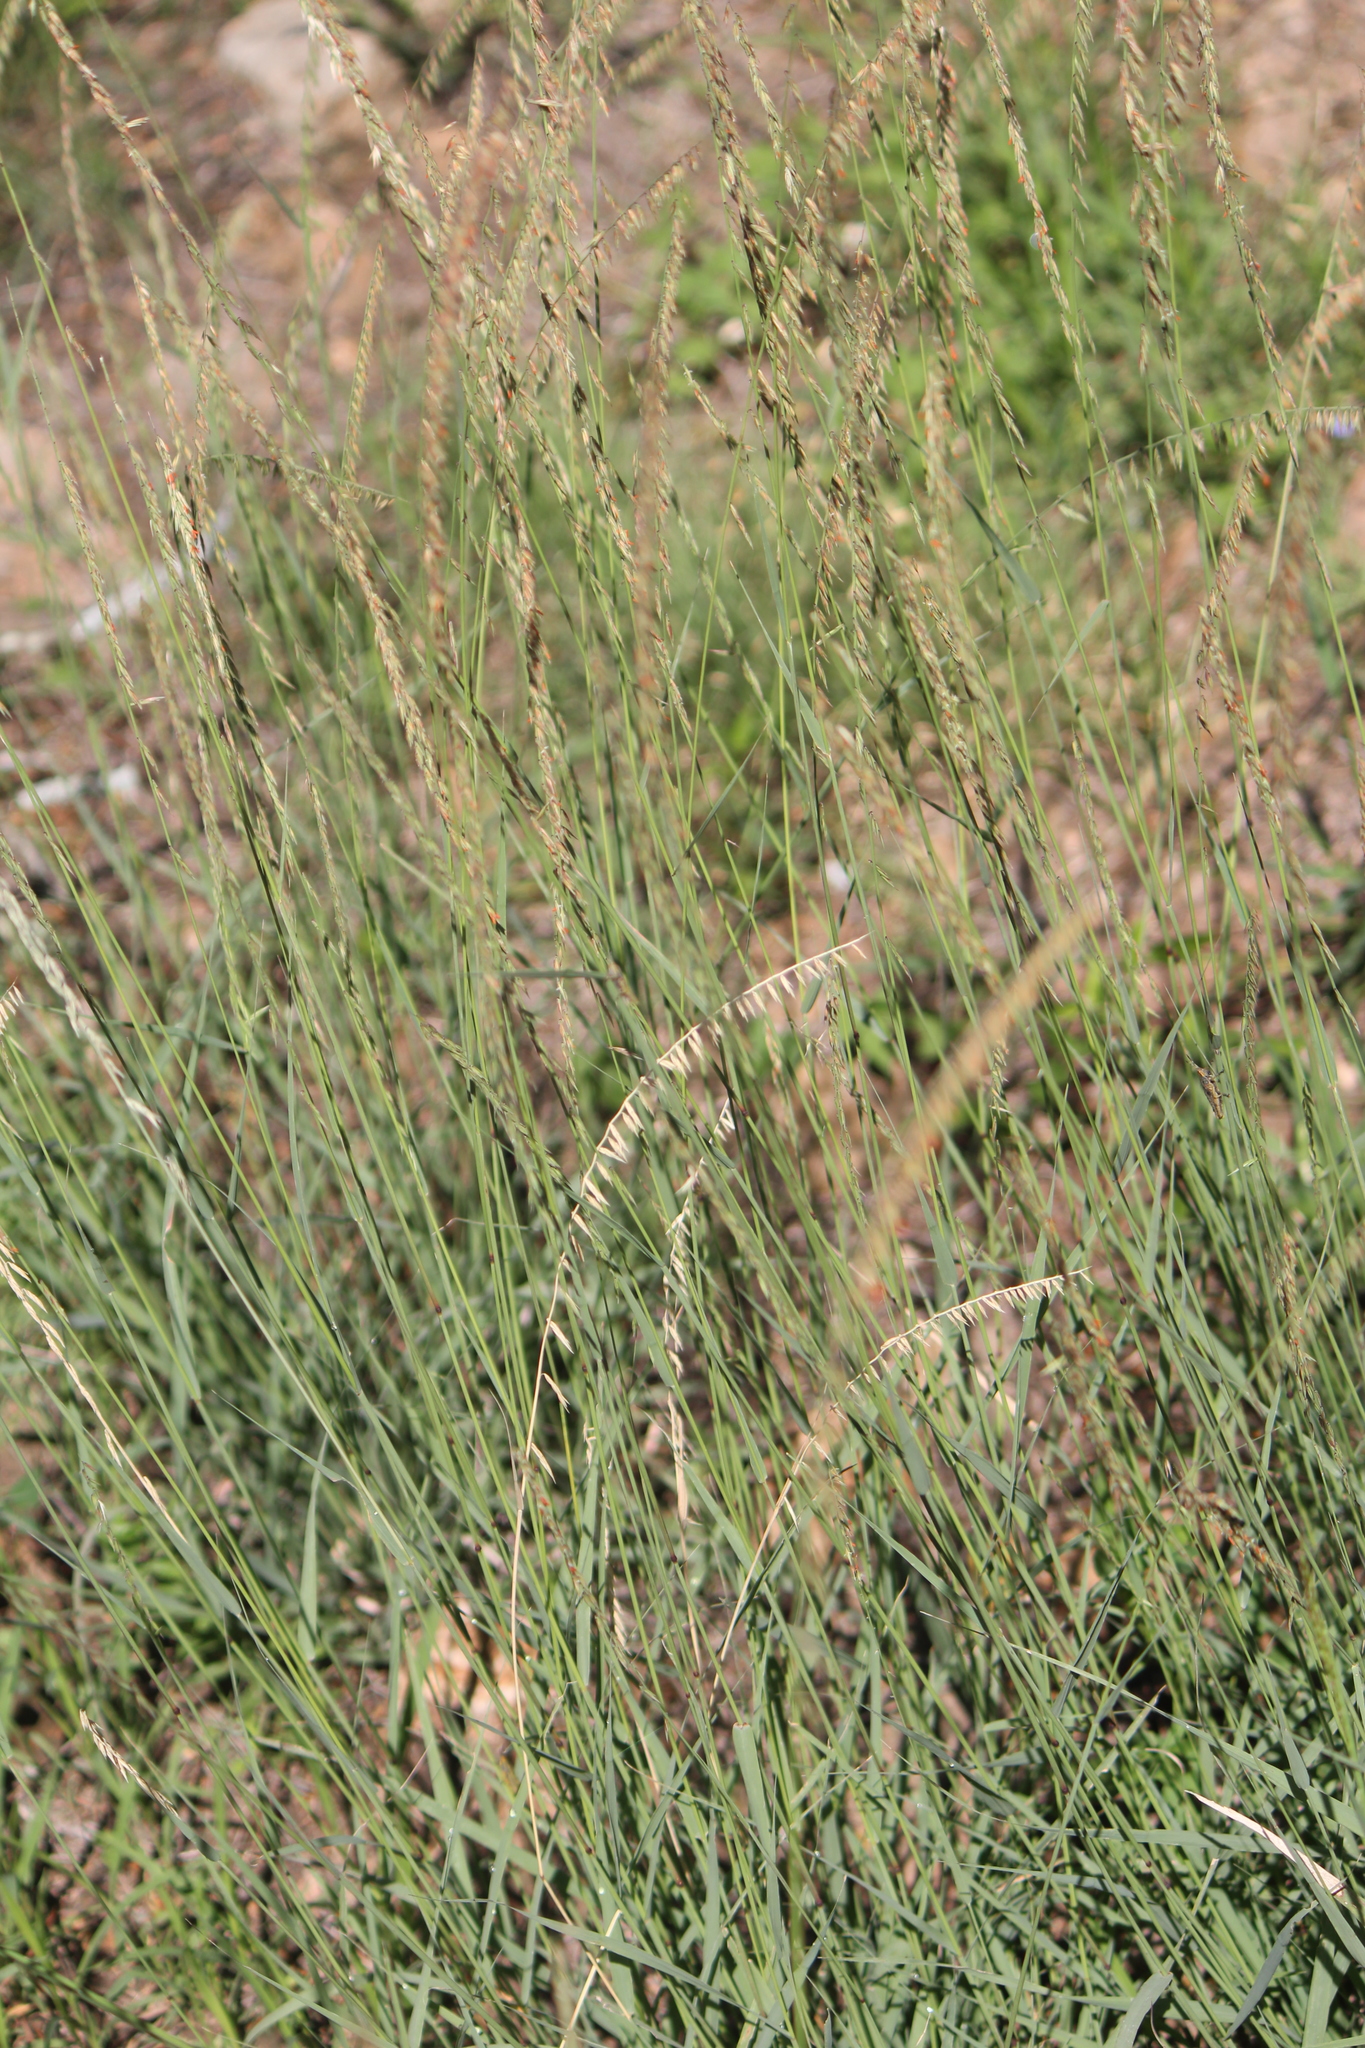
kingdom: Plantae
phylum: Tracheophyta
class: Liliopsida
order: Poales
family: Poaceae
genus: Bouteloua
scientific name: Bouteloua curtipendula
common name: Side-oats grama
